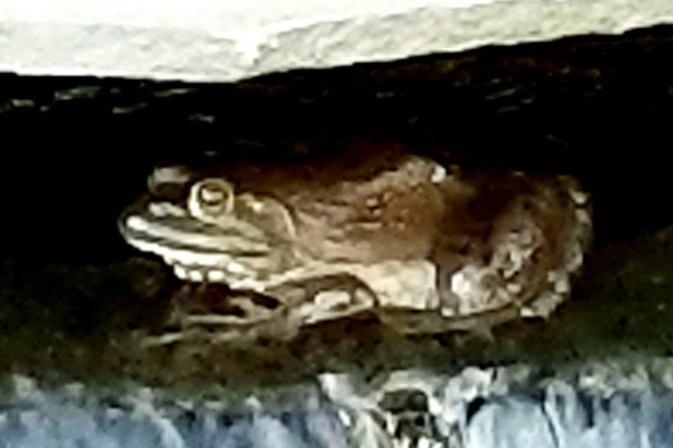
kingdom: Animalia
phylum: Chordata
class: Amphibia
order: Anura
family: Ranidae
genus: Lithobates
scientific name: Lithobates catesbeianus
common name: American bullfrog
